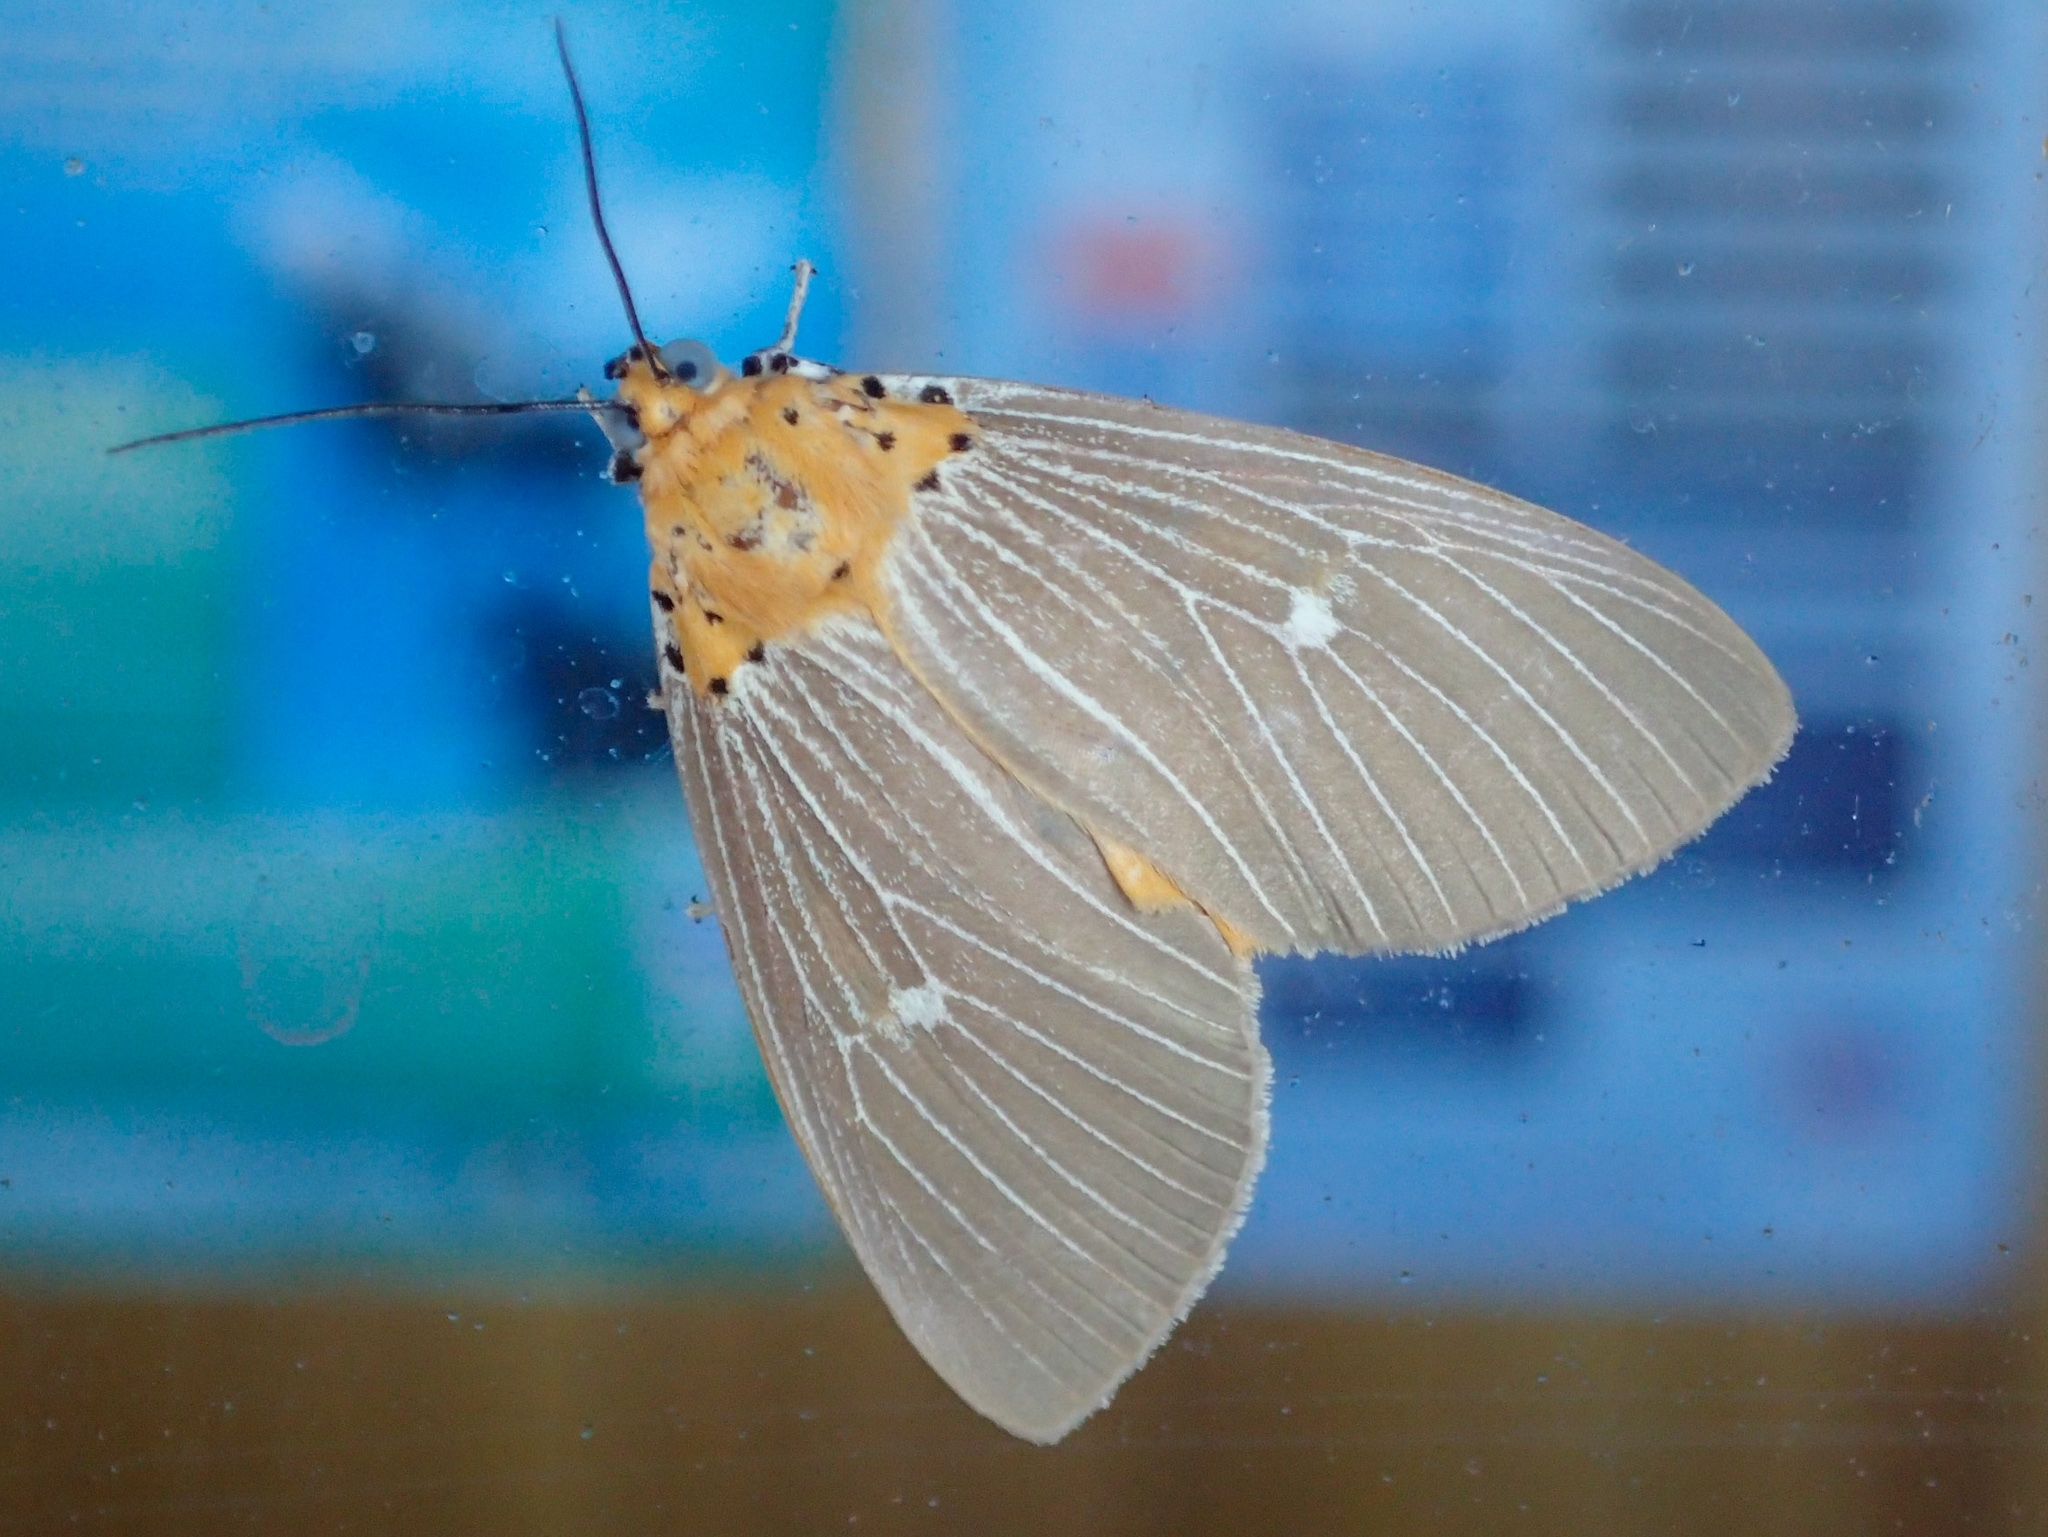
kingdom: Animalia
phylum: Arthropoda
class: Insecta
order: Lepidoptera
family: Erebidae
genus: Asota
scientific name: Asota caricae
